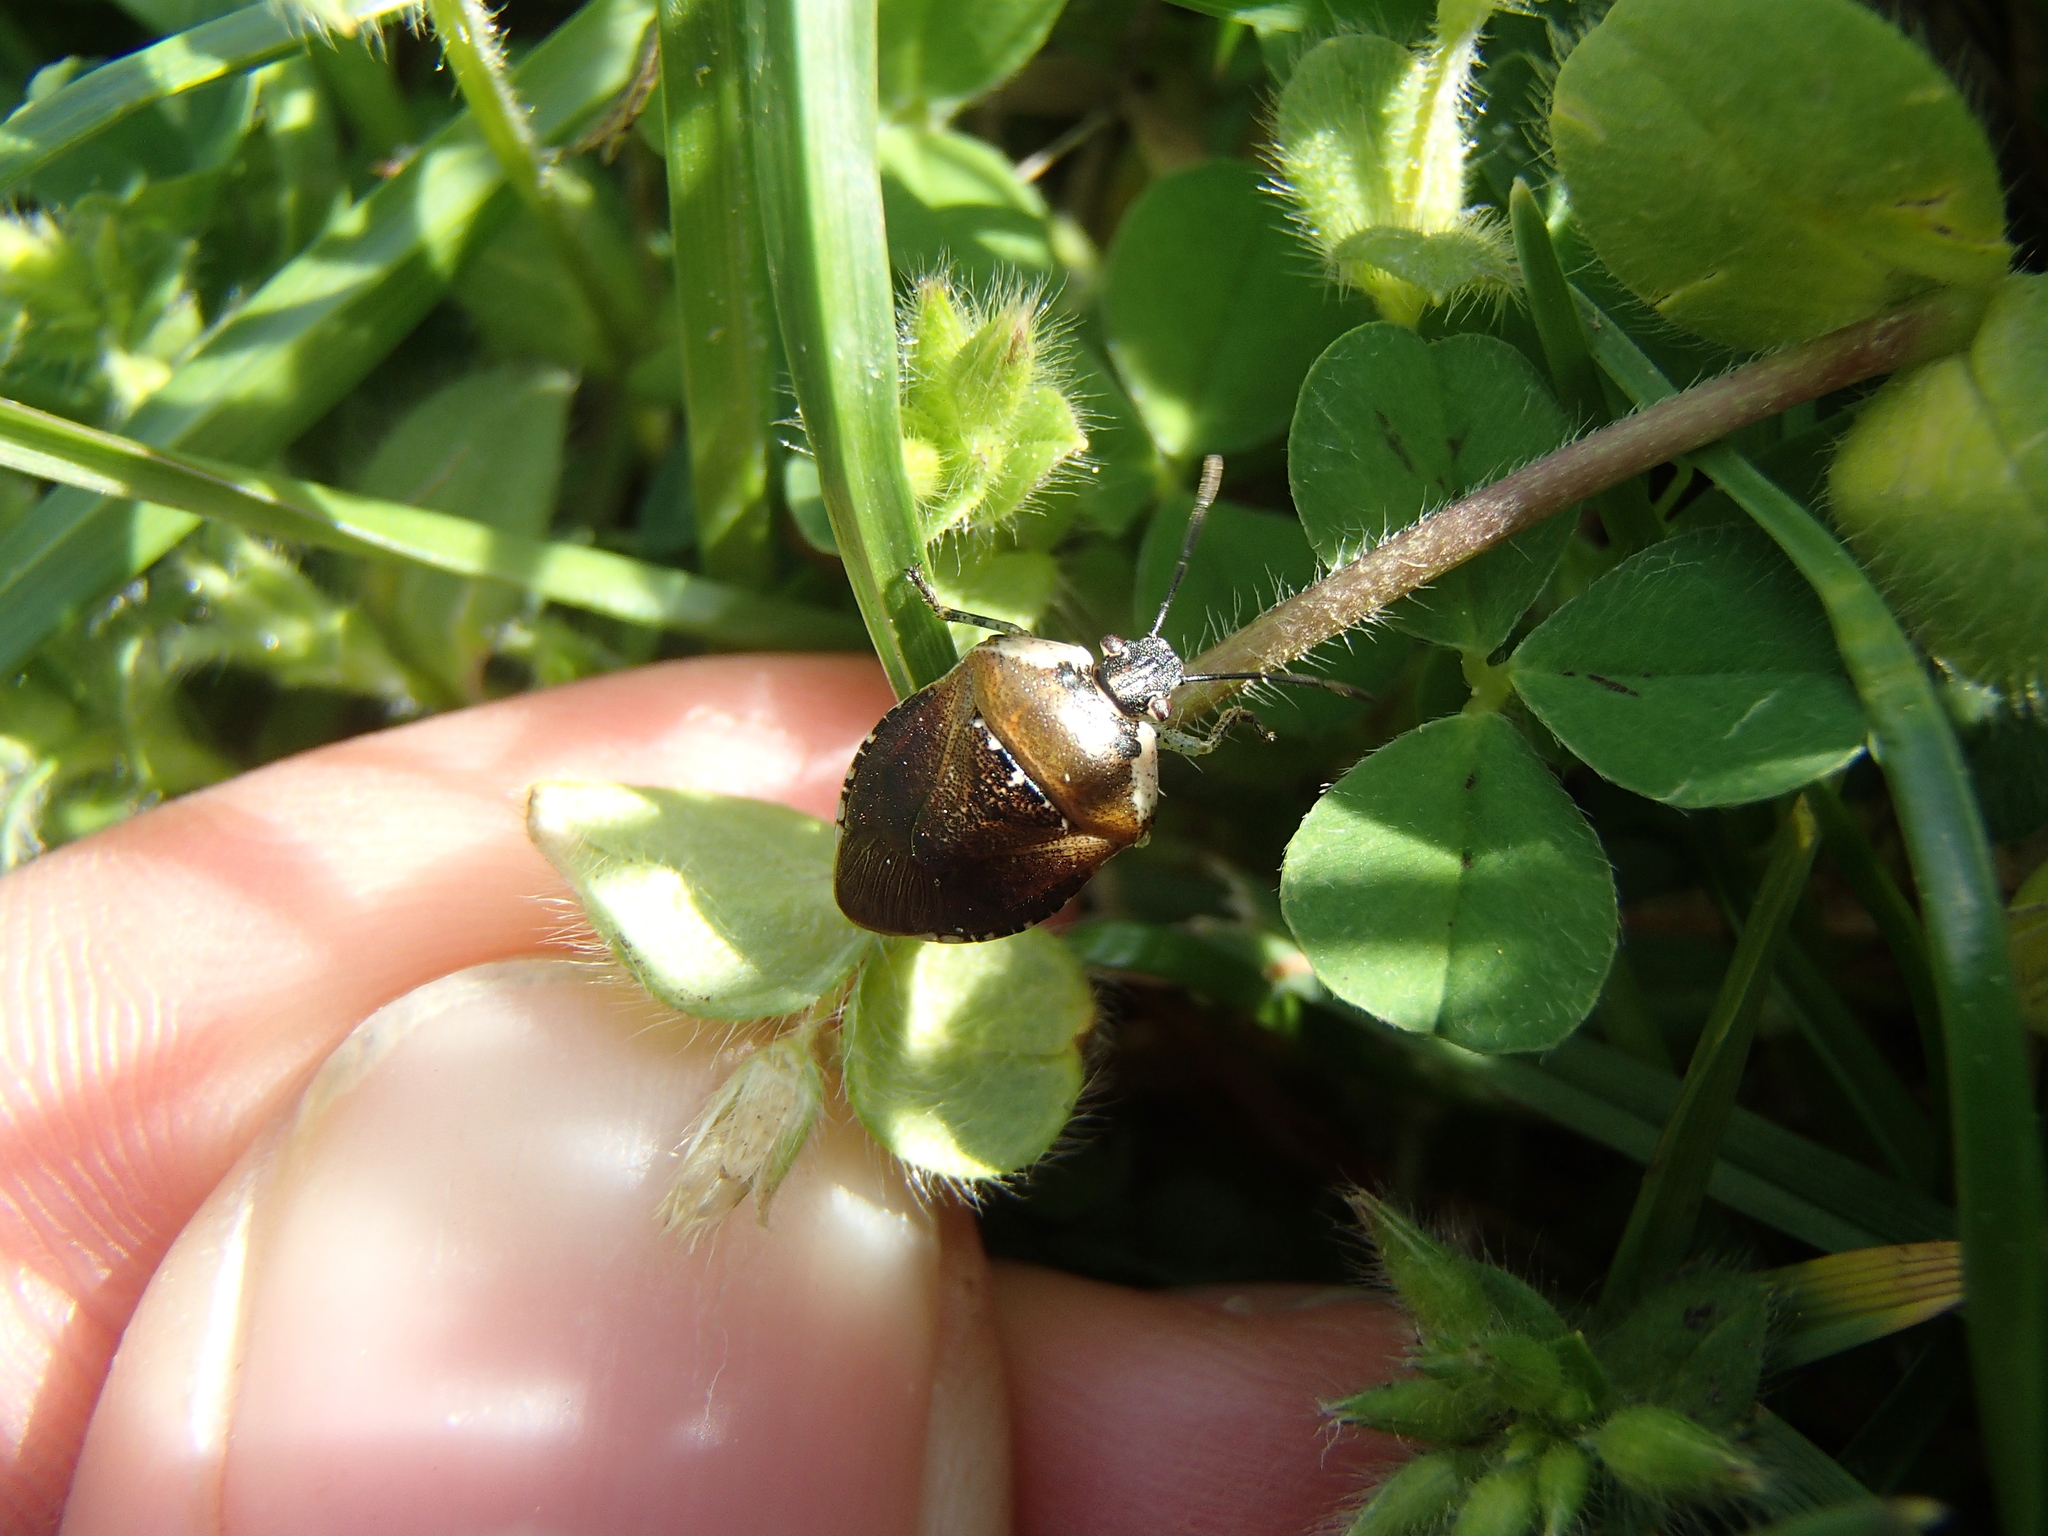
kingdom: Animalia
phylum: Arthropoda
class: Insecta
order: Hemiptera
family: Pentatomidae
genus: Monteithiella
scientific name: Monteithiella
